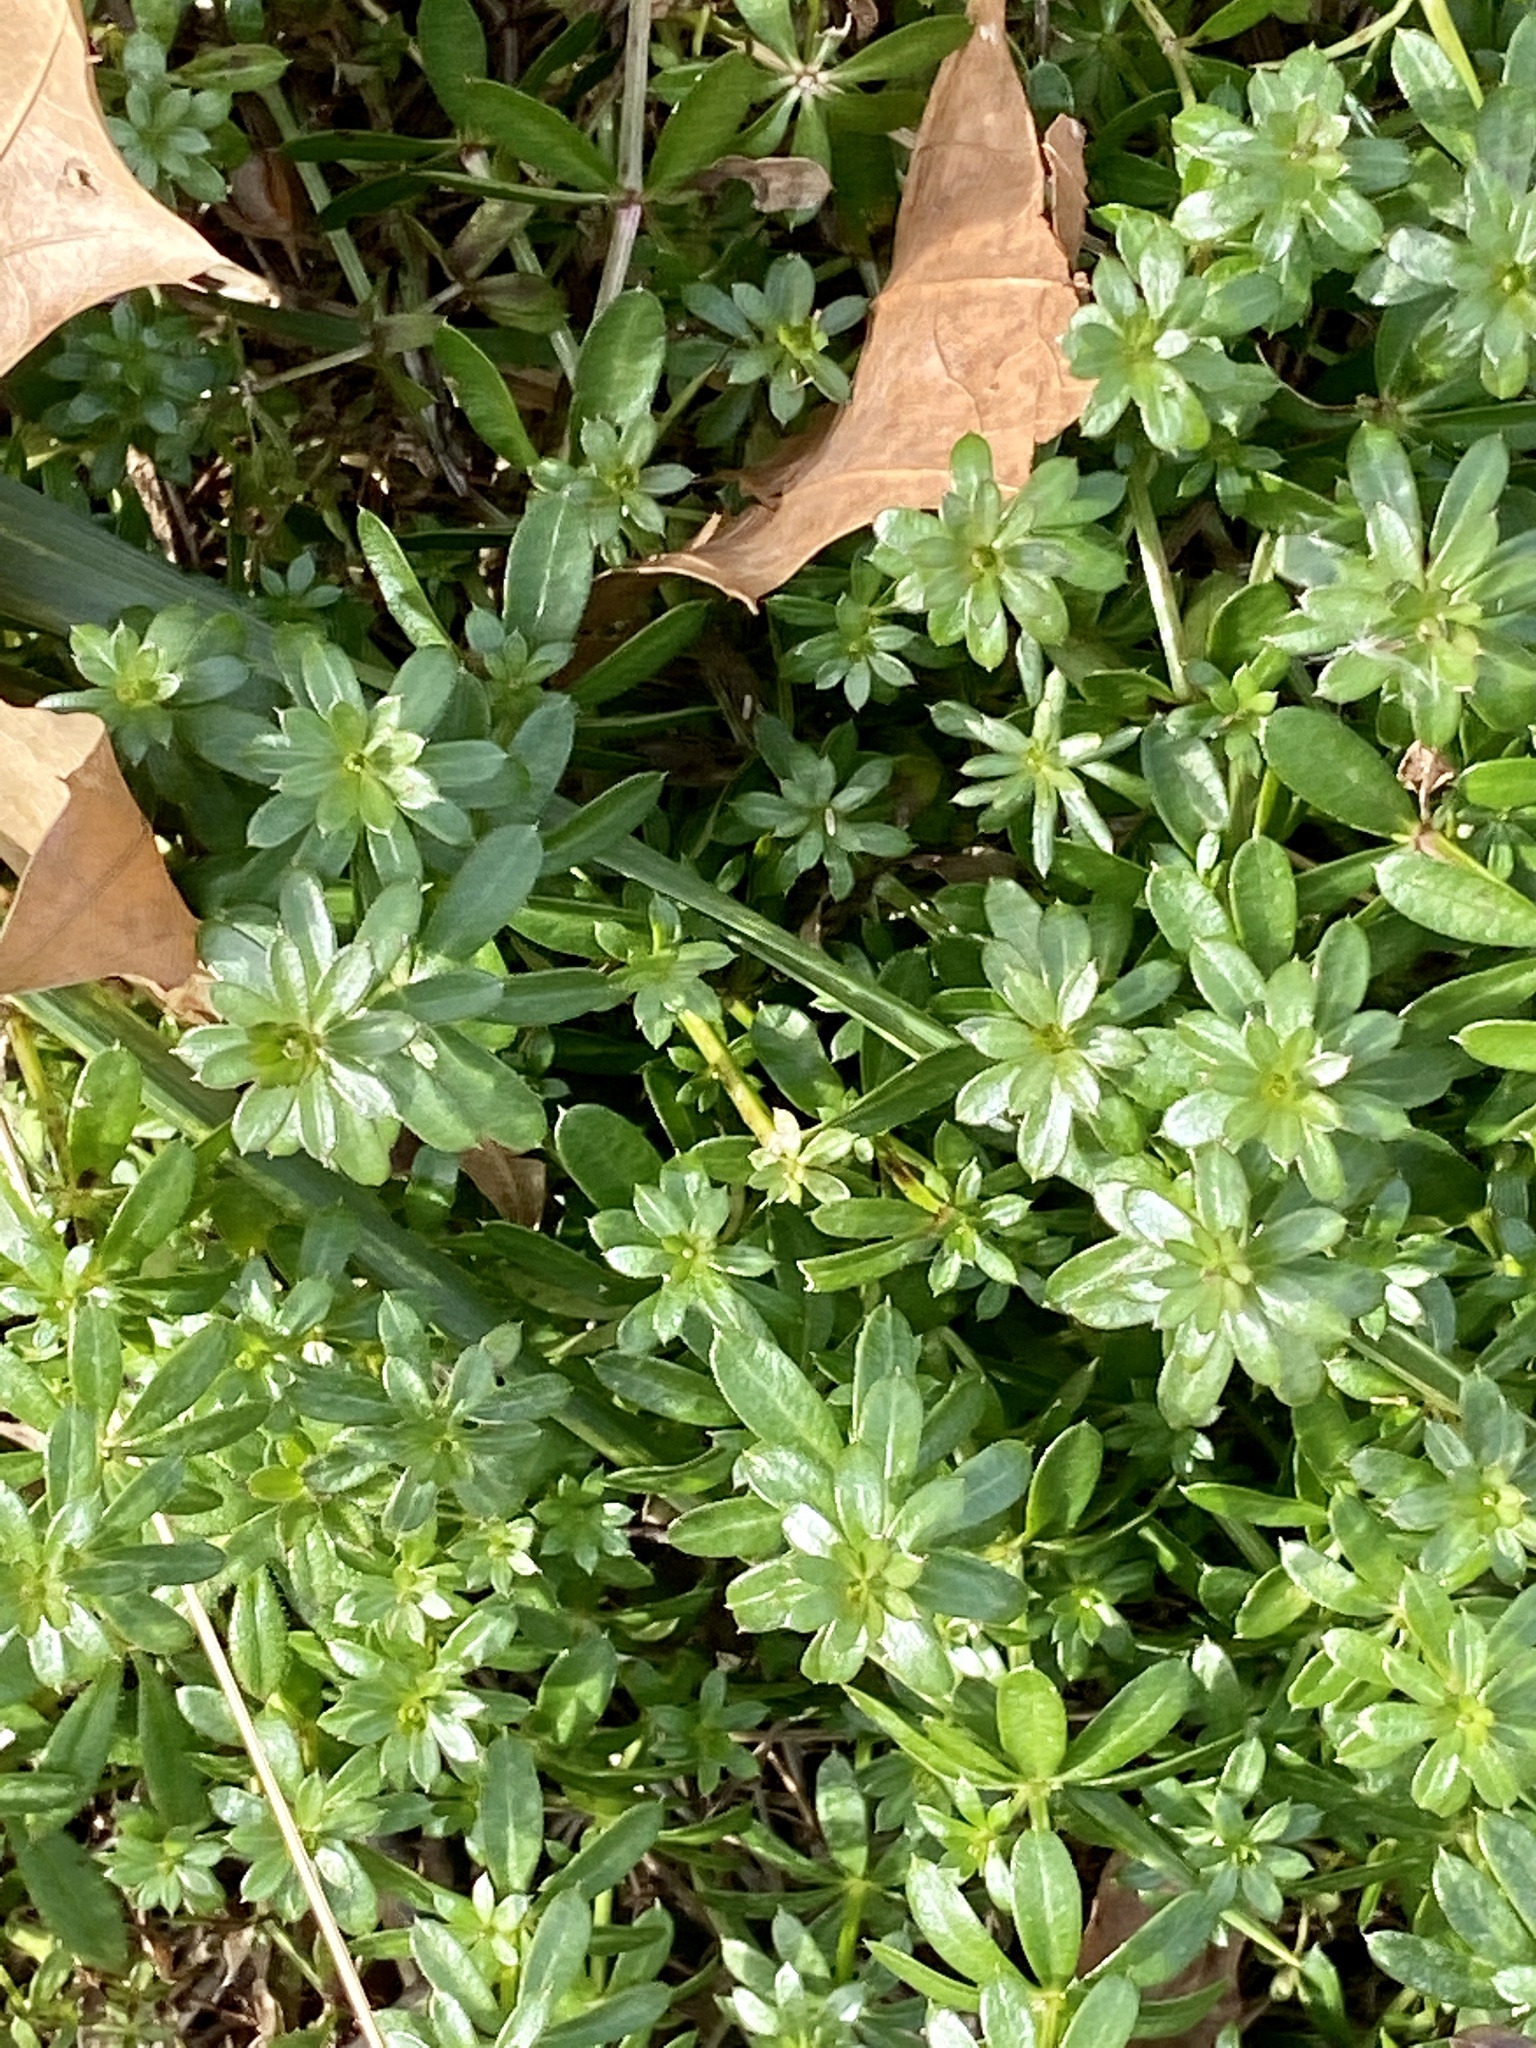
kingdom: Plantae
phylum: Tracheophyta
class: Magnoliopsida
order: Gentianales
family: Rubiaceae
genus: Galium
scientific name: Galium mollugo
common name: Hedge bedstraw
